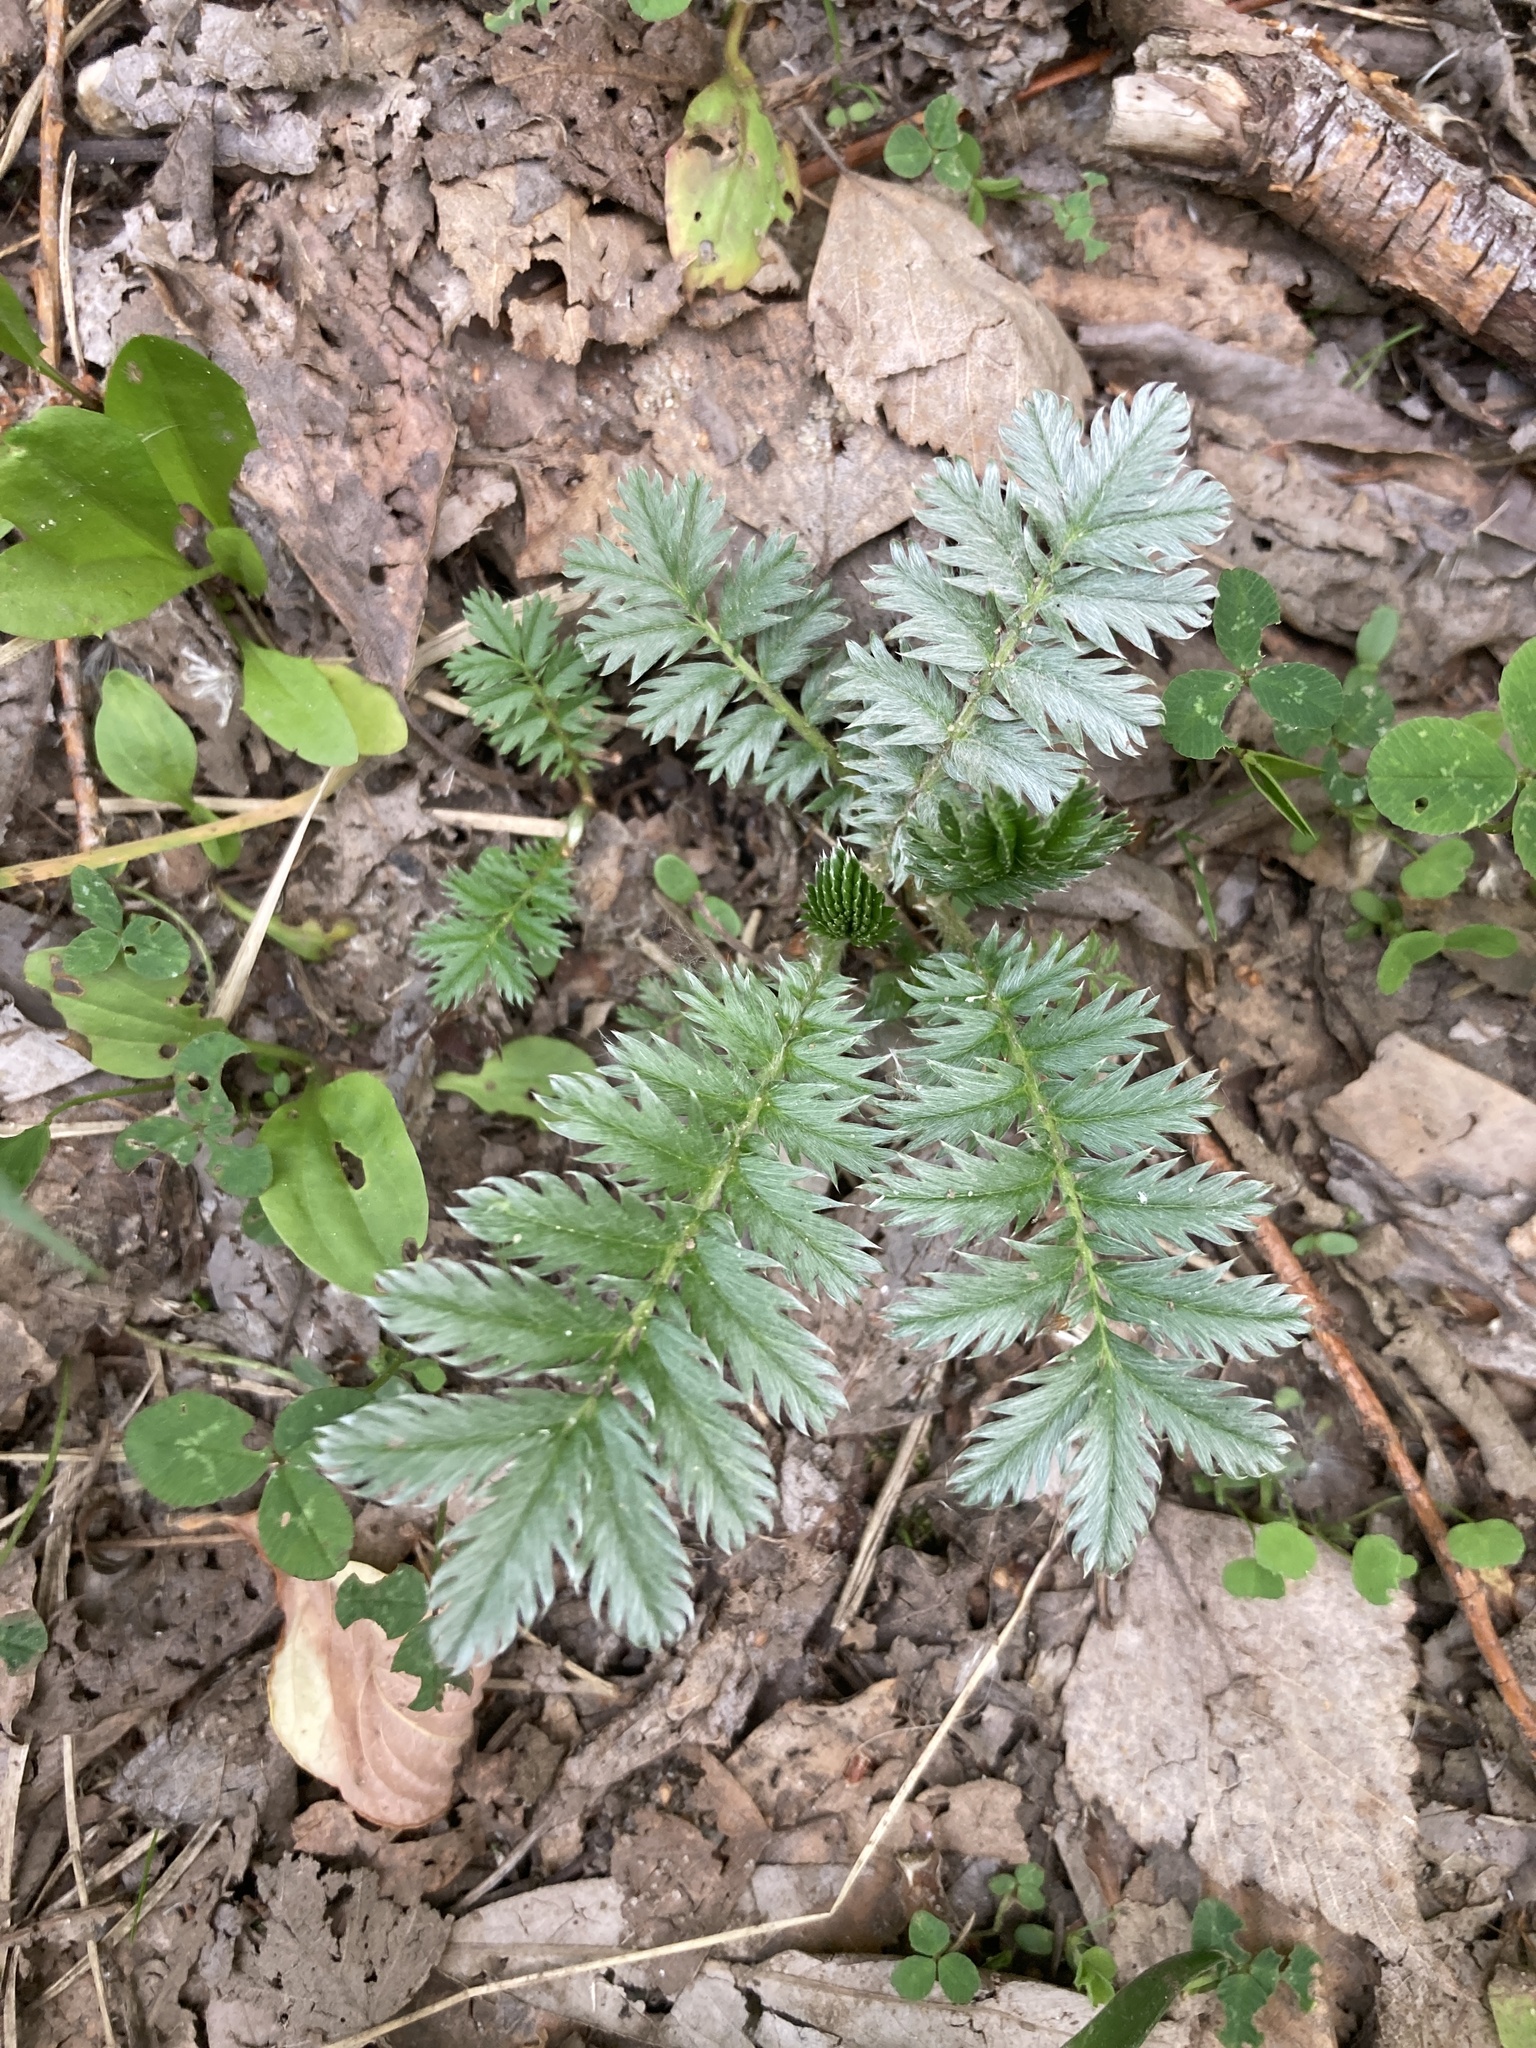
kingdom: Plantae
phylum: Tracheophyta
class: Magnoliopsida
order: Rosales
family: Rosaceae
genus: Argentina
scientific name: Argentina anserina
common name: Common silverweed
